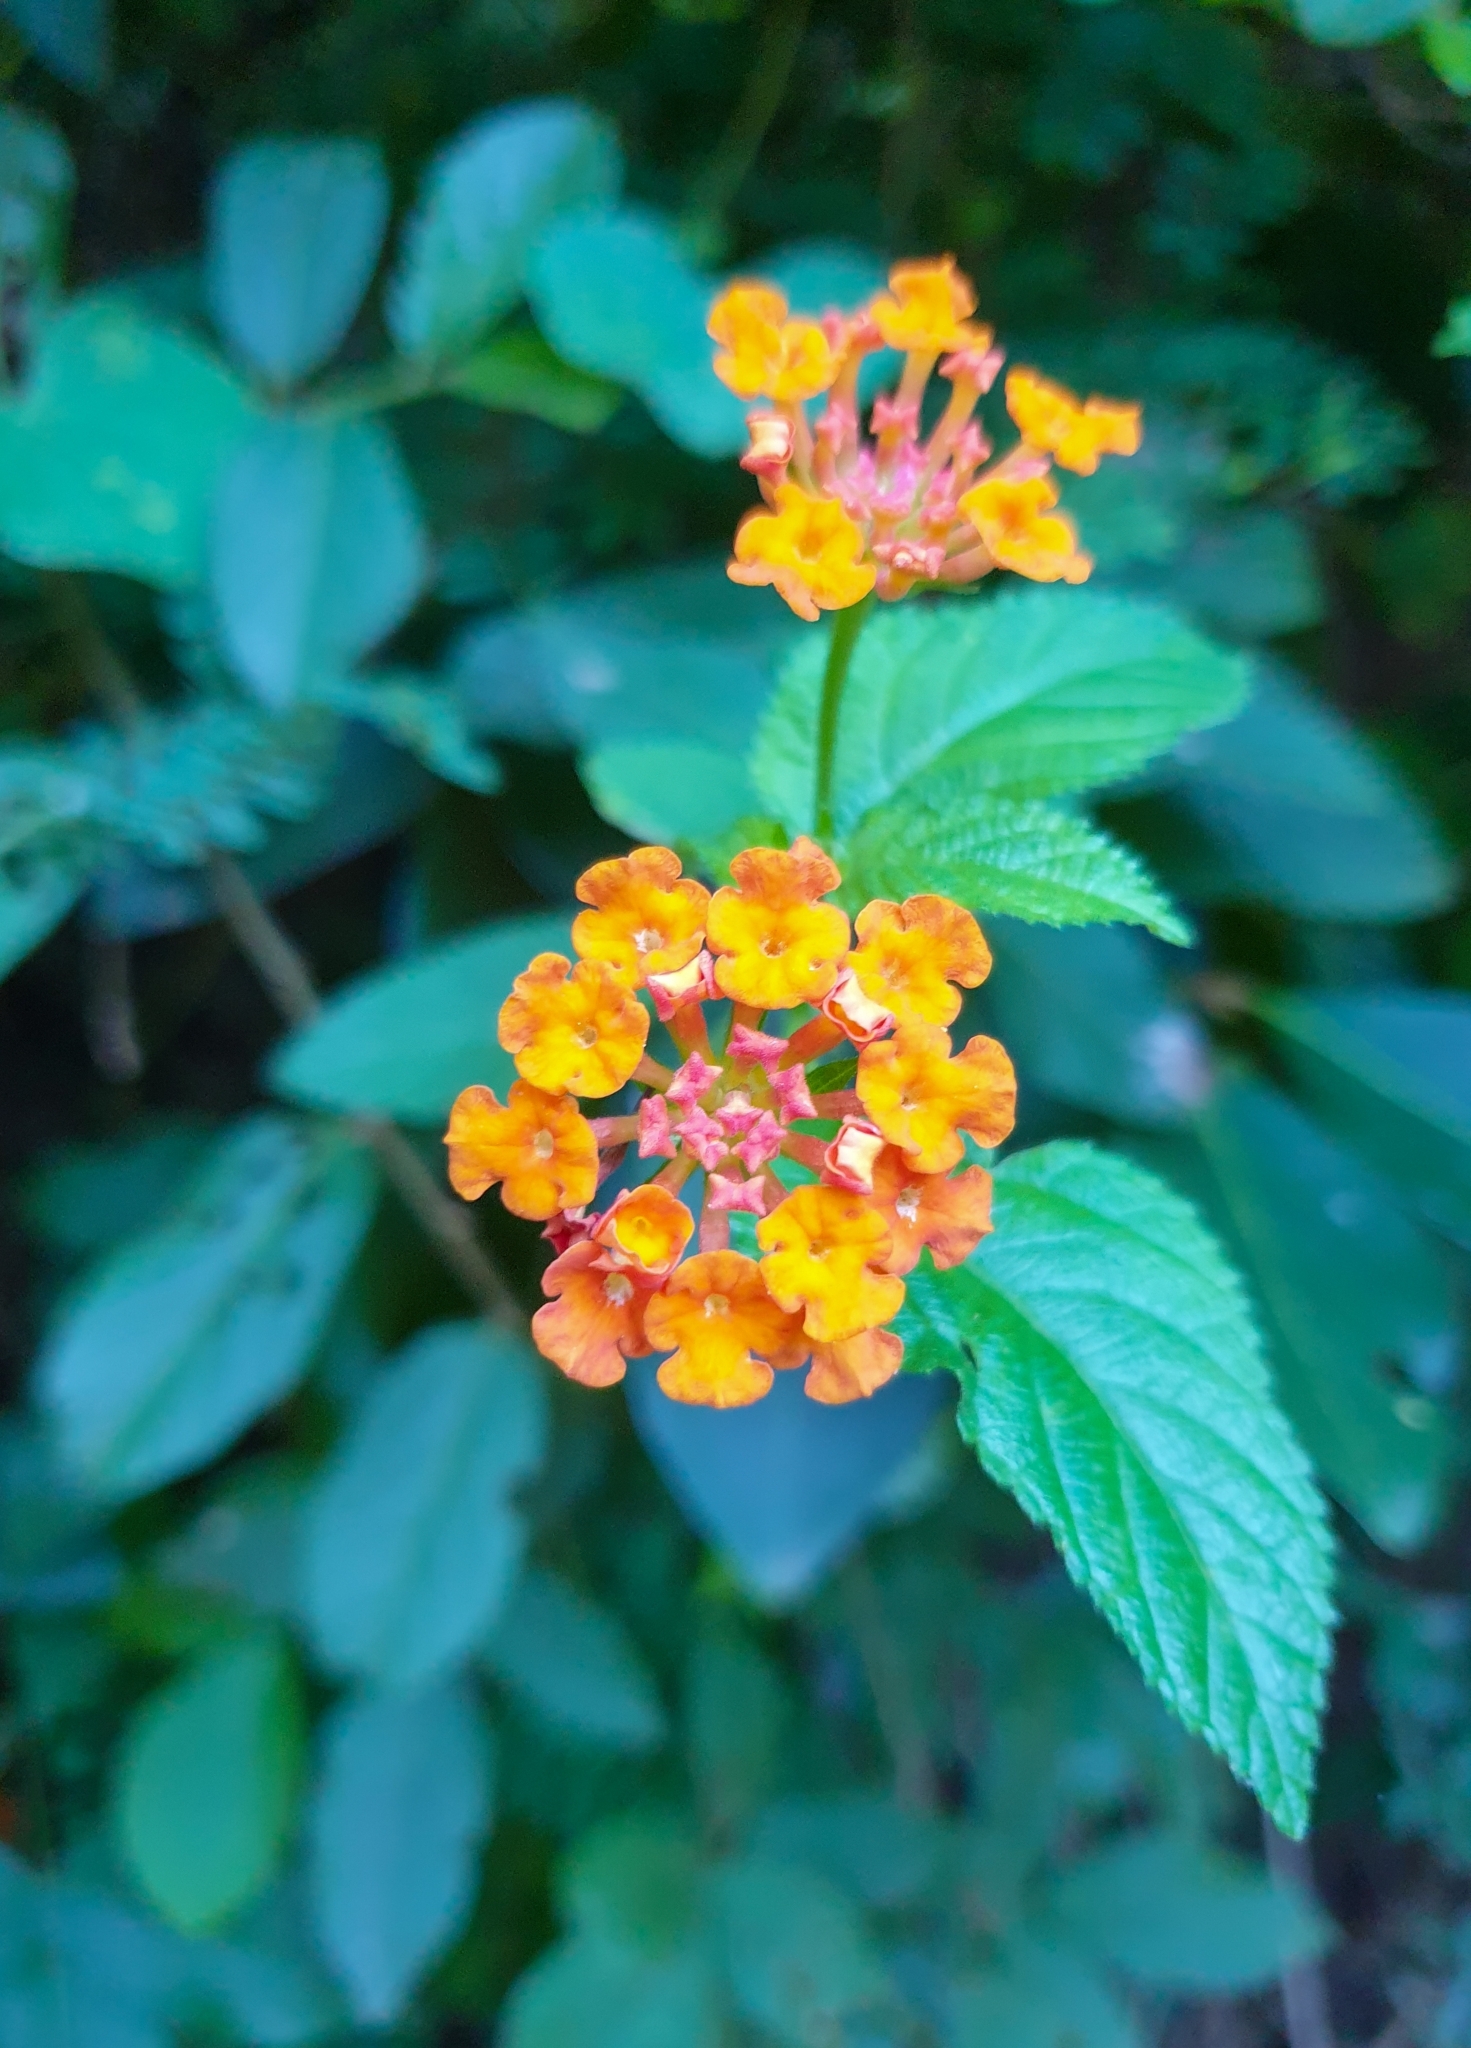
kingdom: Plantae
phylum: Tracheophyta
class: Magnoliopsida
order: Lamiales
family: Verbenaceae
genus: Lantana
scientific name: Lantana camara
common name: Lantana
